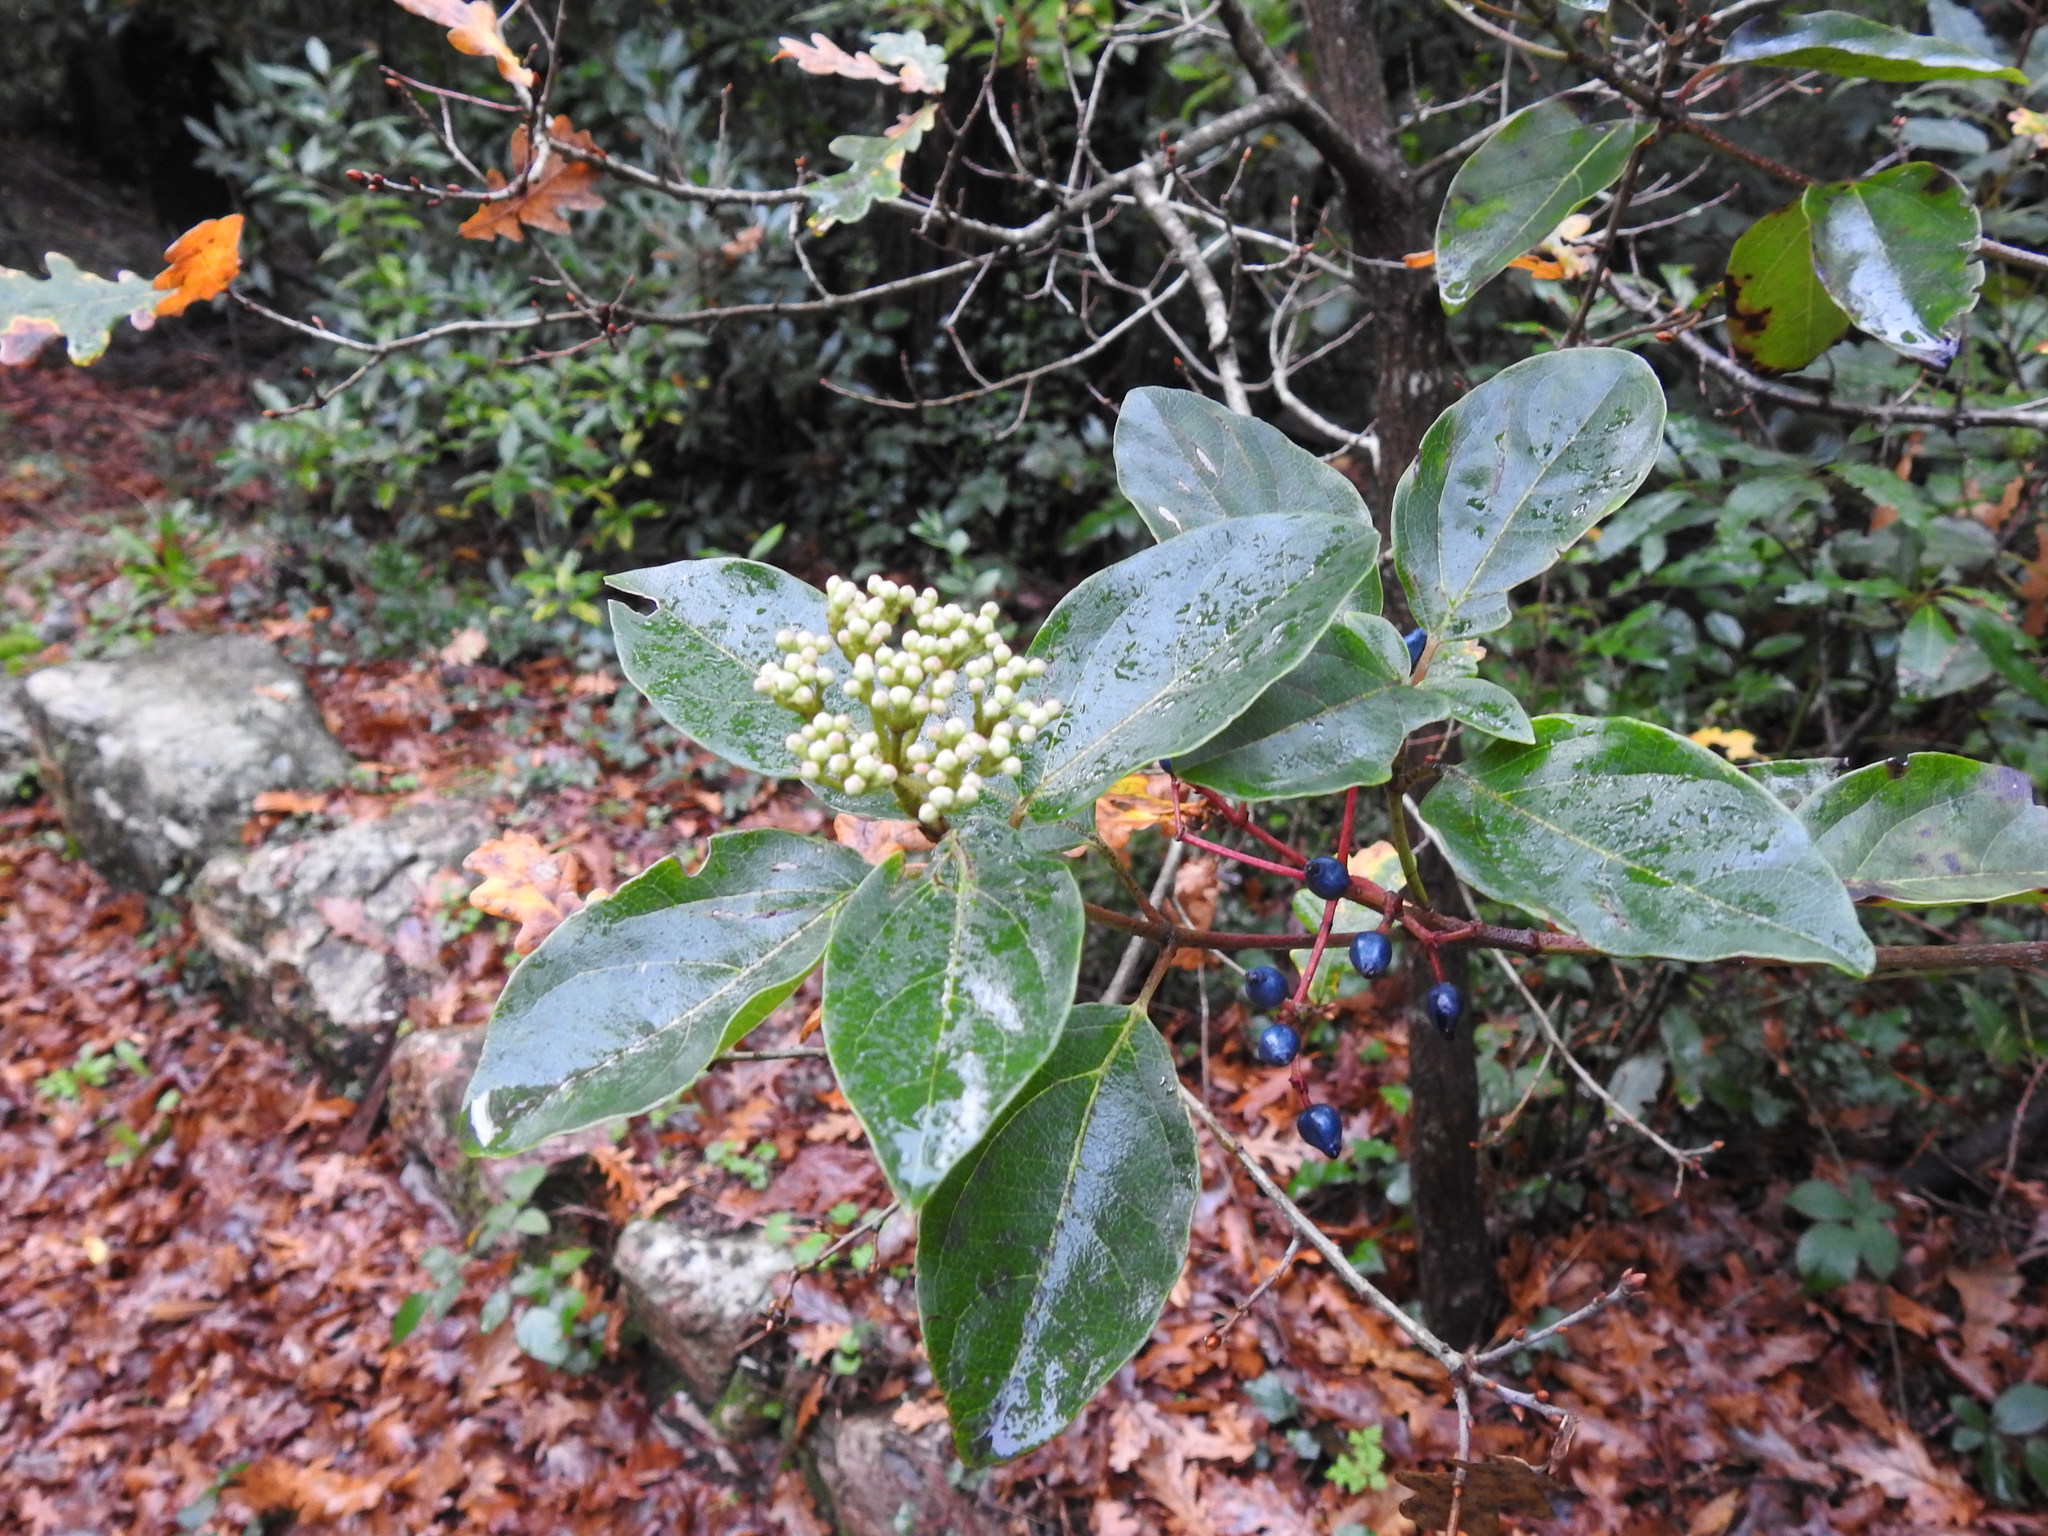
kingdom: Plantae
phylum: Tracheophyta
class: Magnoliopsida
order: Dipsacales
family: Viburnaceae
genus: Viburnum
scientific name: Viburnum tinus
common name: Laurustinus
